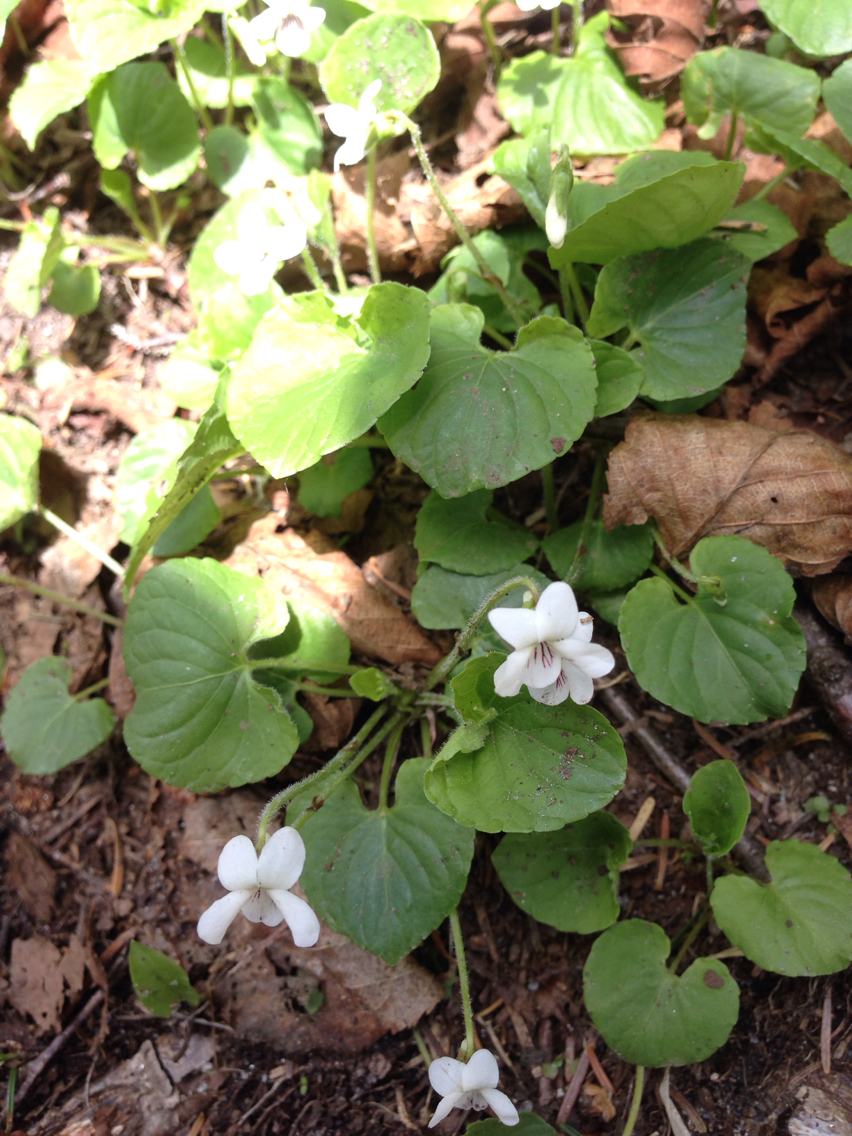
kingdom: Plantae
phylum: Tracheophyta
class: Magnoliopsida
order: Malpighiales
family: Violaceae
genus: Viola
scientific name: Viola blanda
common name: Sweet white violet
